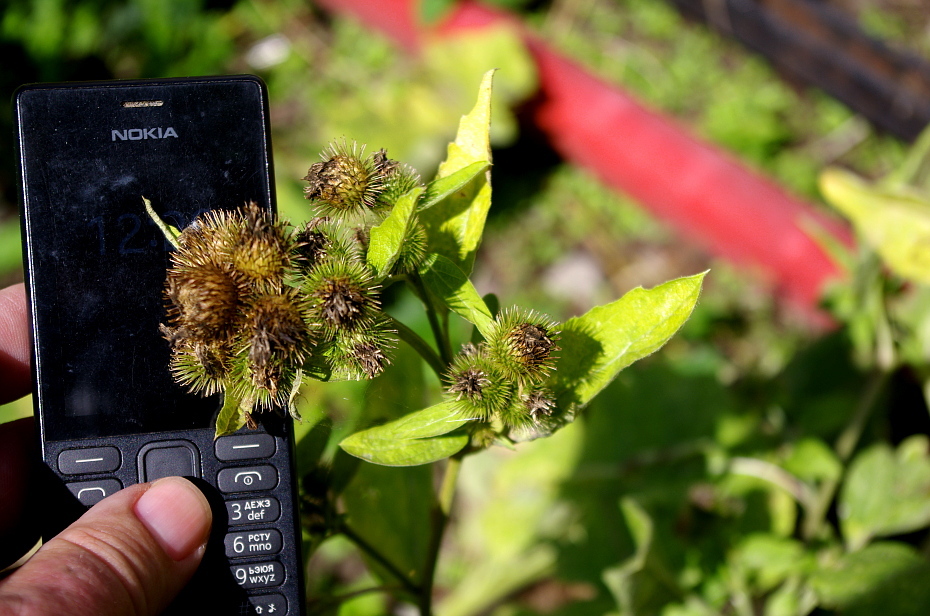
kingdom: Plantae
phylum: Tracheophyta
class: Magnoliopsida
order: Asterales
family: Asteraceae
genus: Arctium
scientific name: Arctium minus
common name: Lesser burdock
